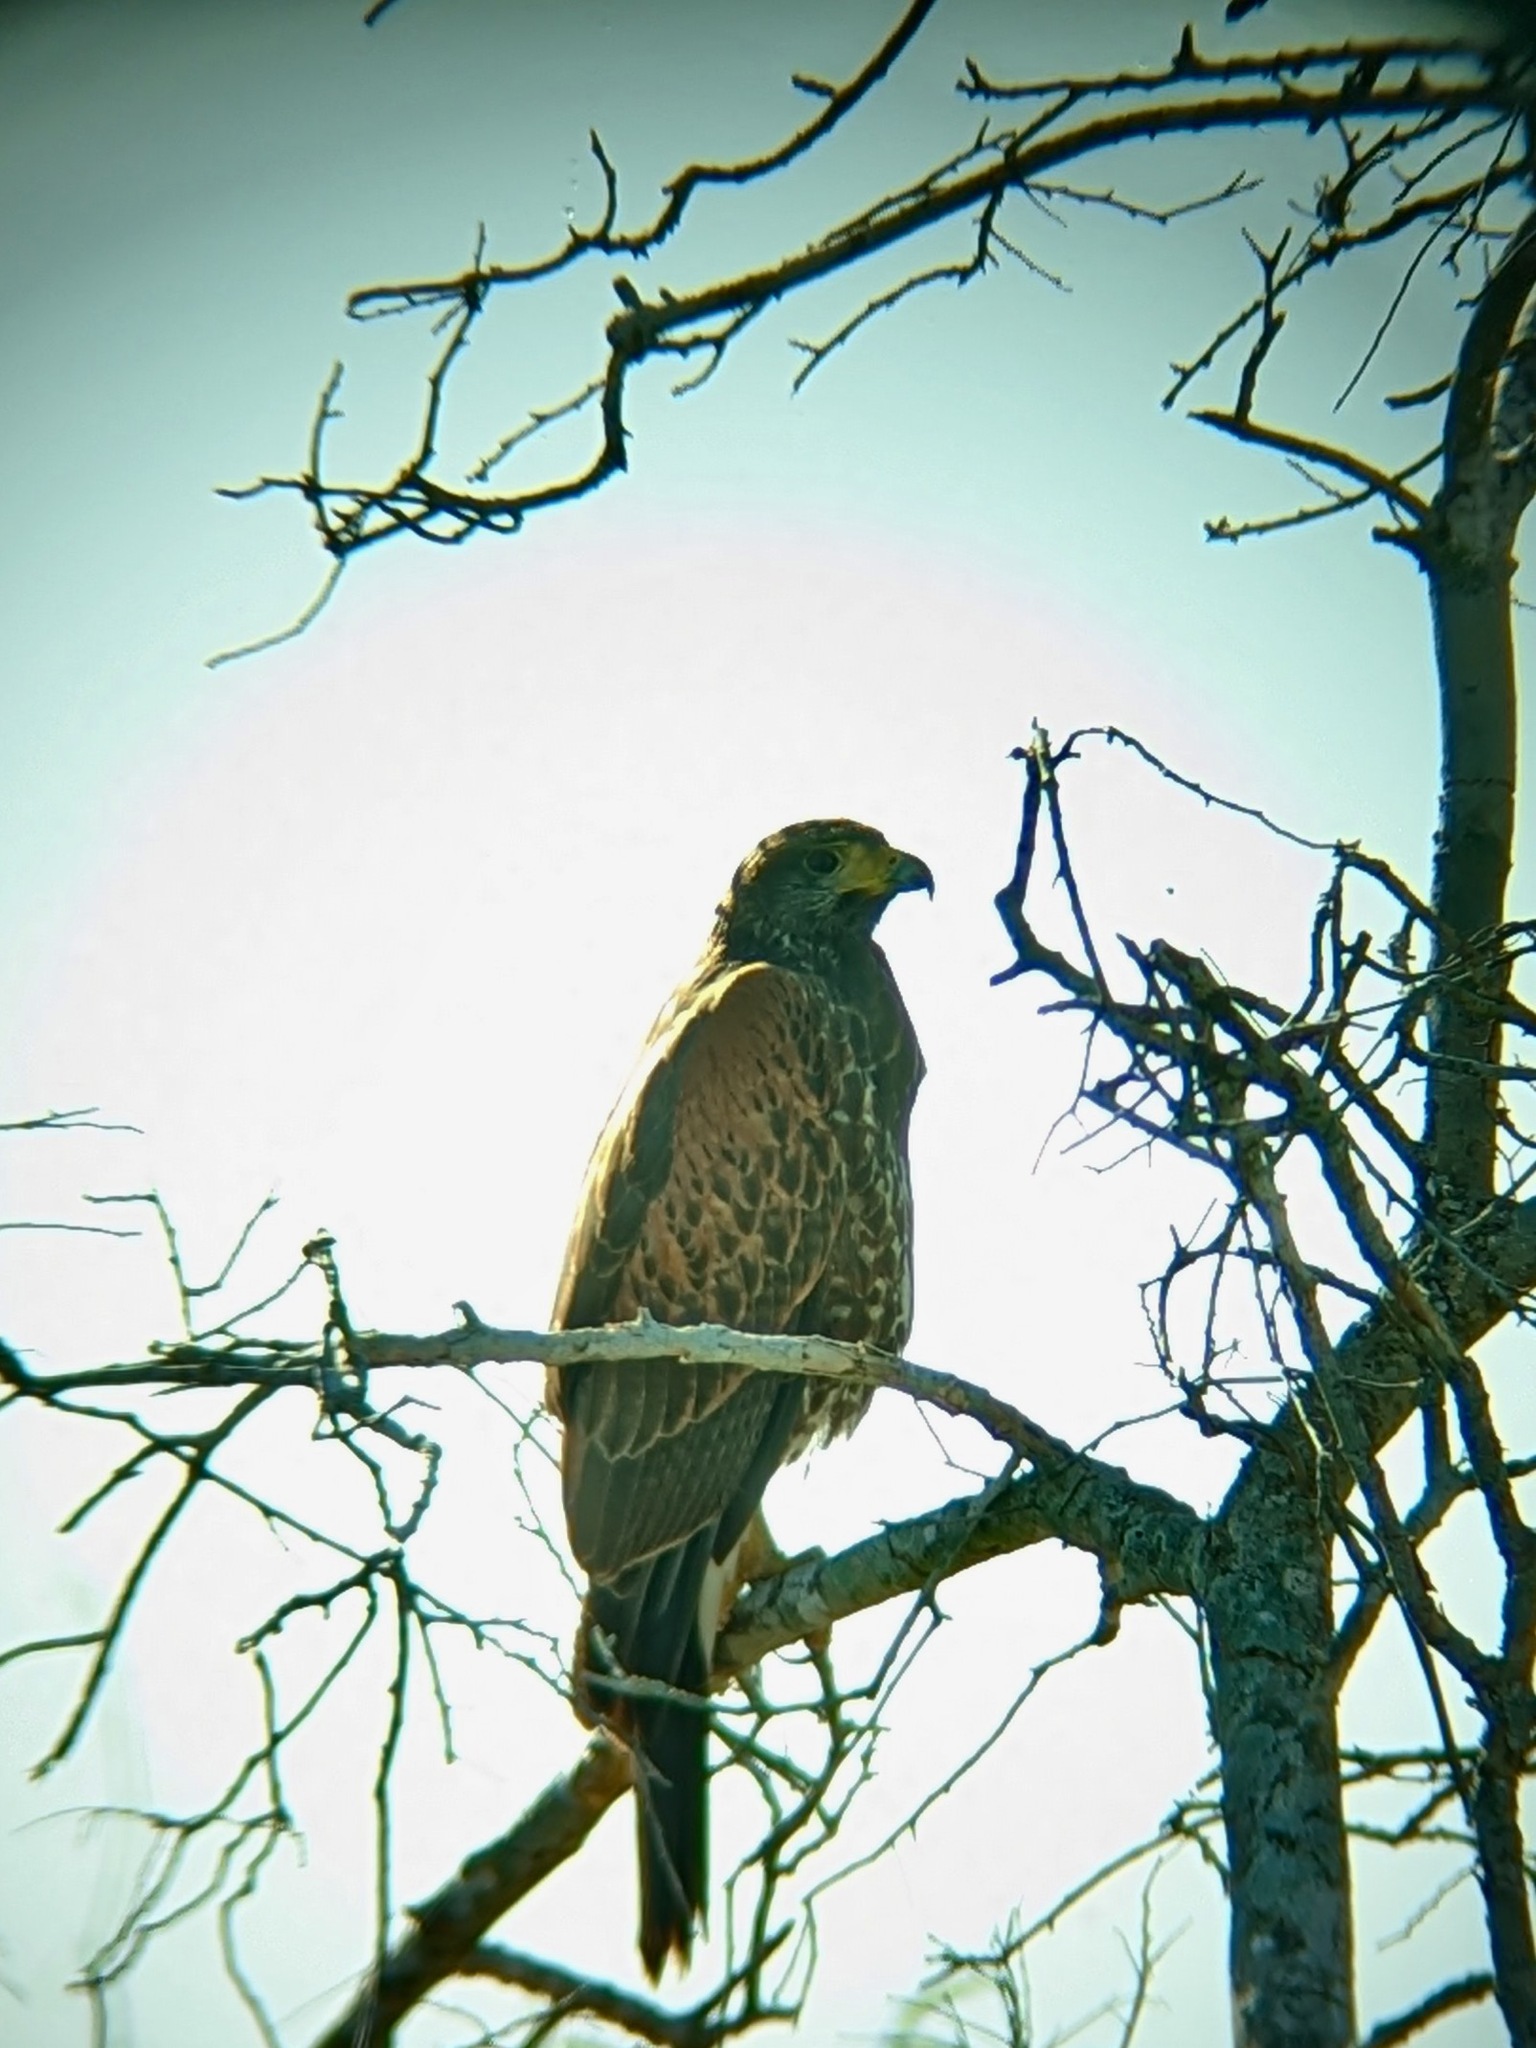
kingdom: Animalia
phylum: Chordata
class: Aves
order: Accipitriformes
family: Accipitridae
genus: Parabuteo
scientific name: Parabuteo unicinctus
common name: Harris's hawk
